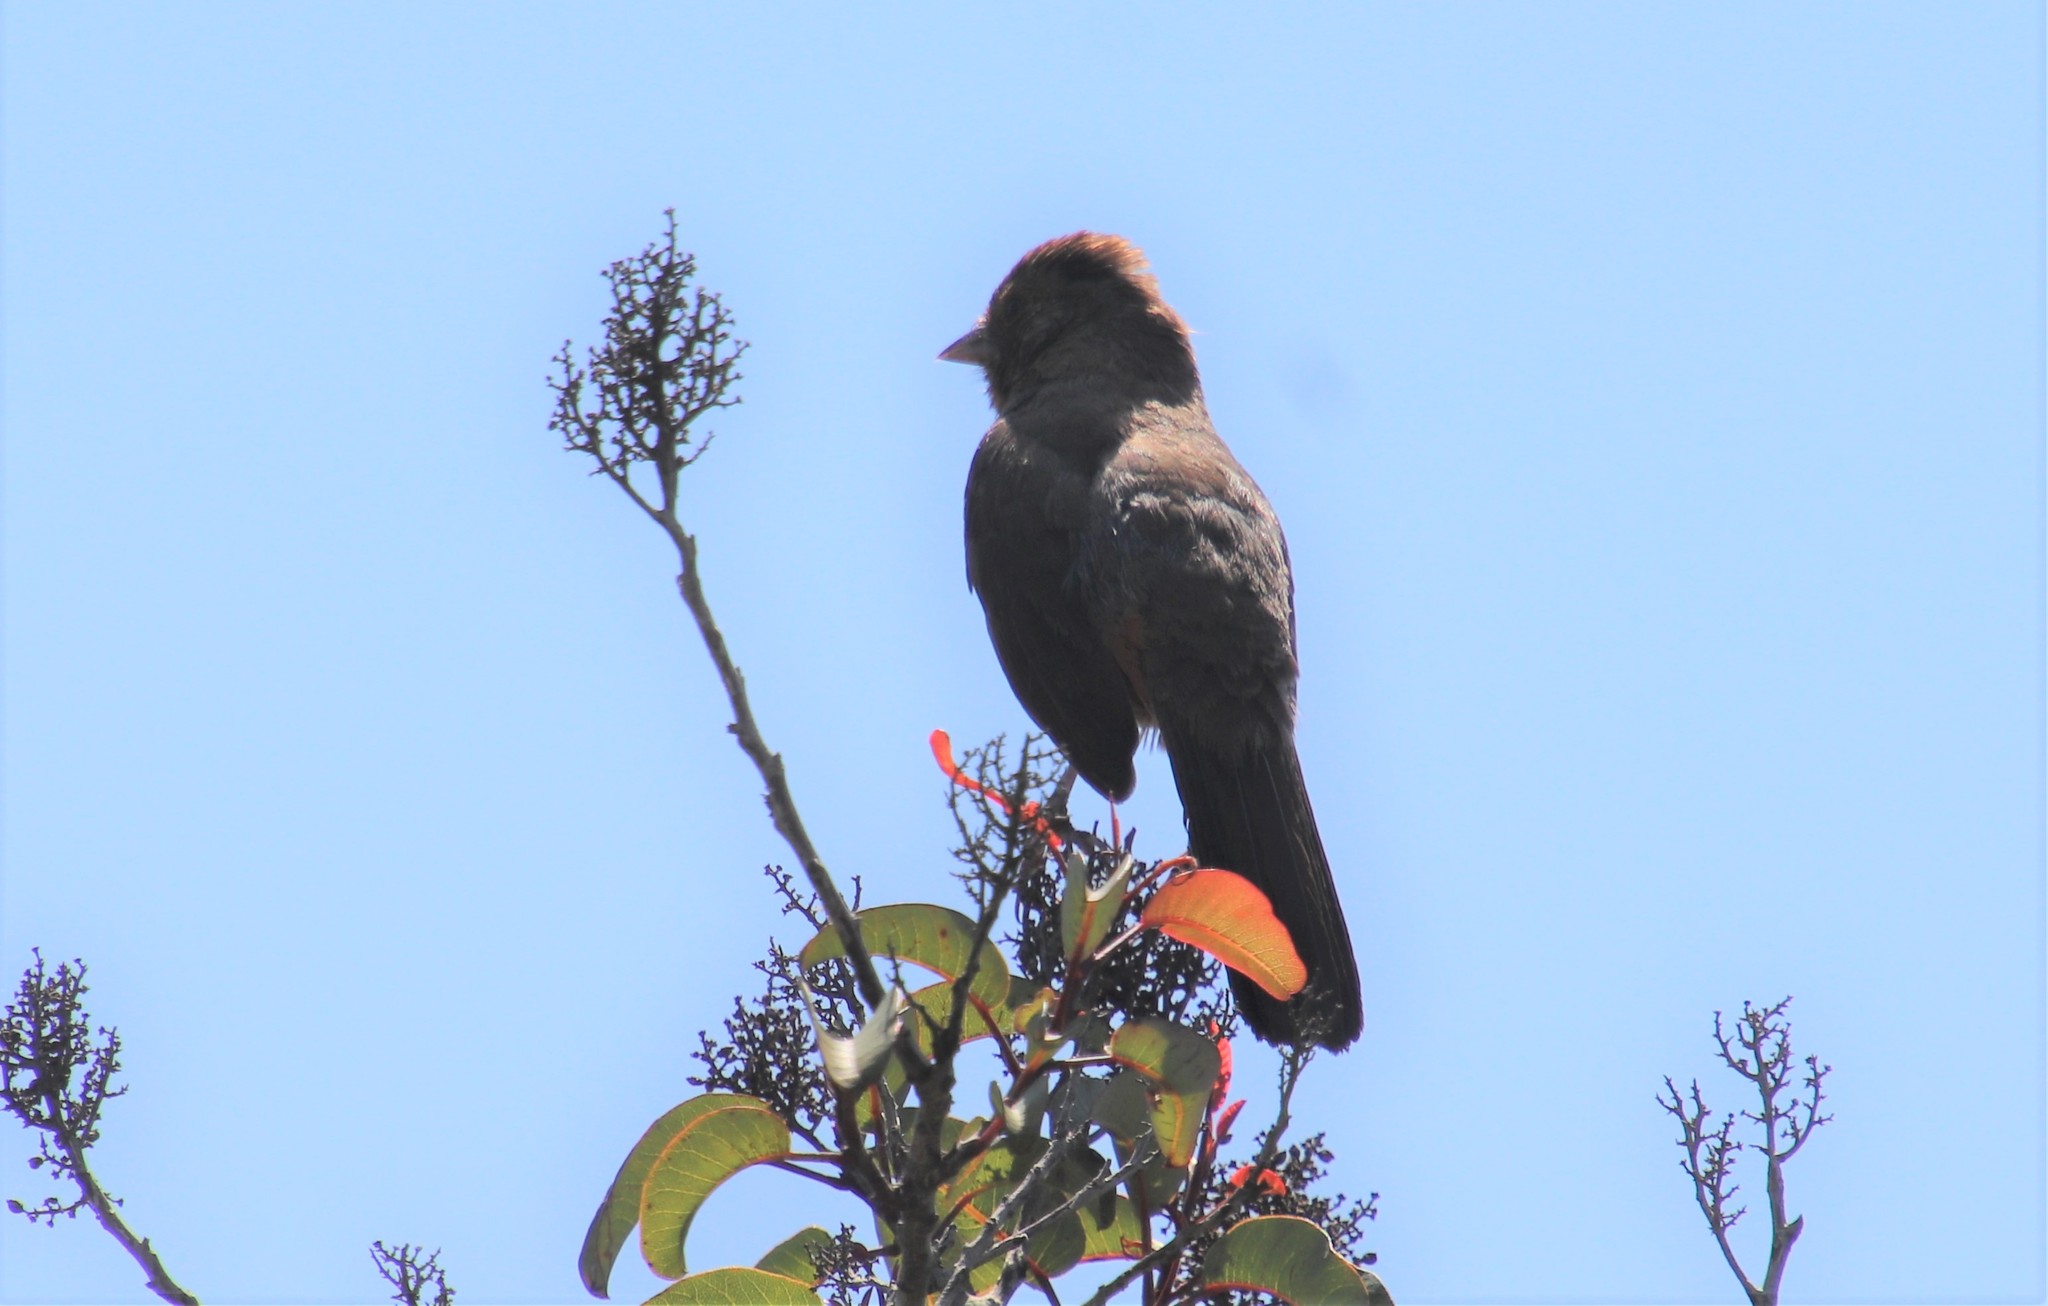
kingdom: Animalia
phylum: Chordata
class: Aves
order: Passeriformes
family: Passerellidae
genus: Melozone
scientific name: Melozone crissalis
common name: California towhee
